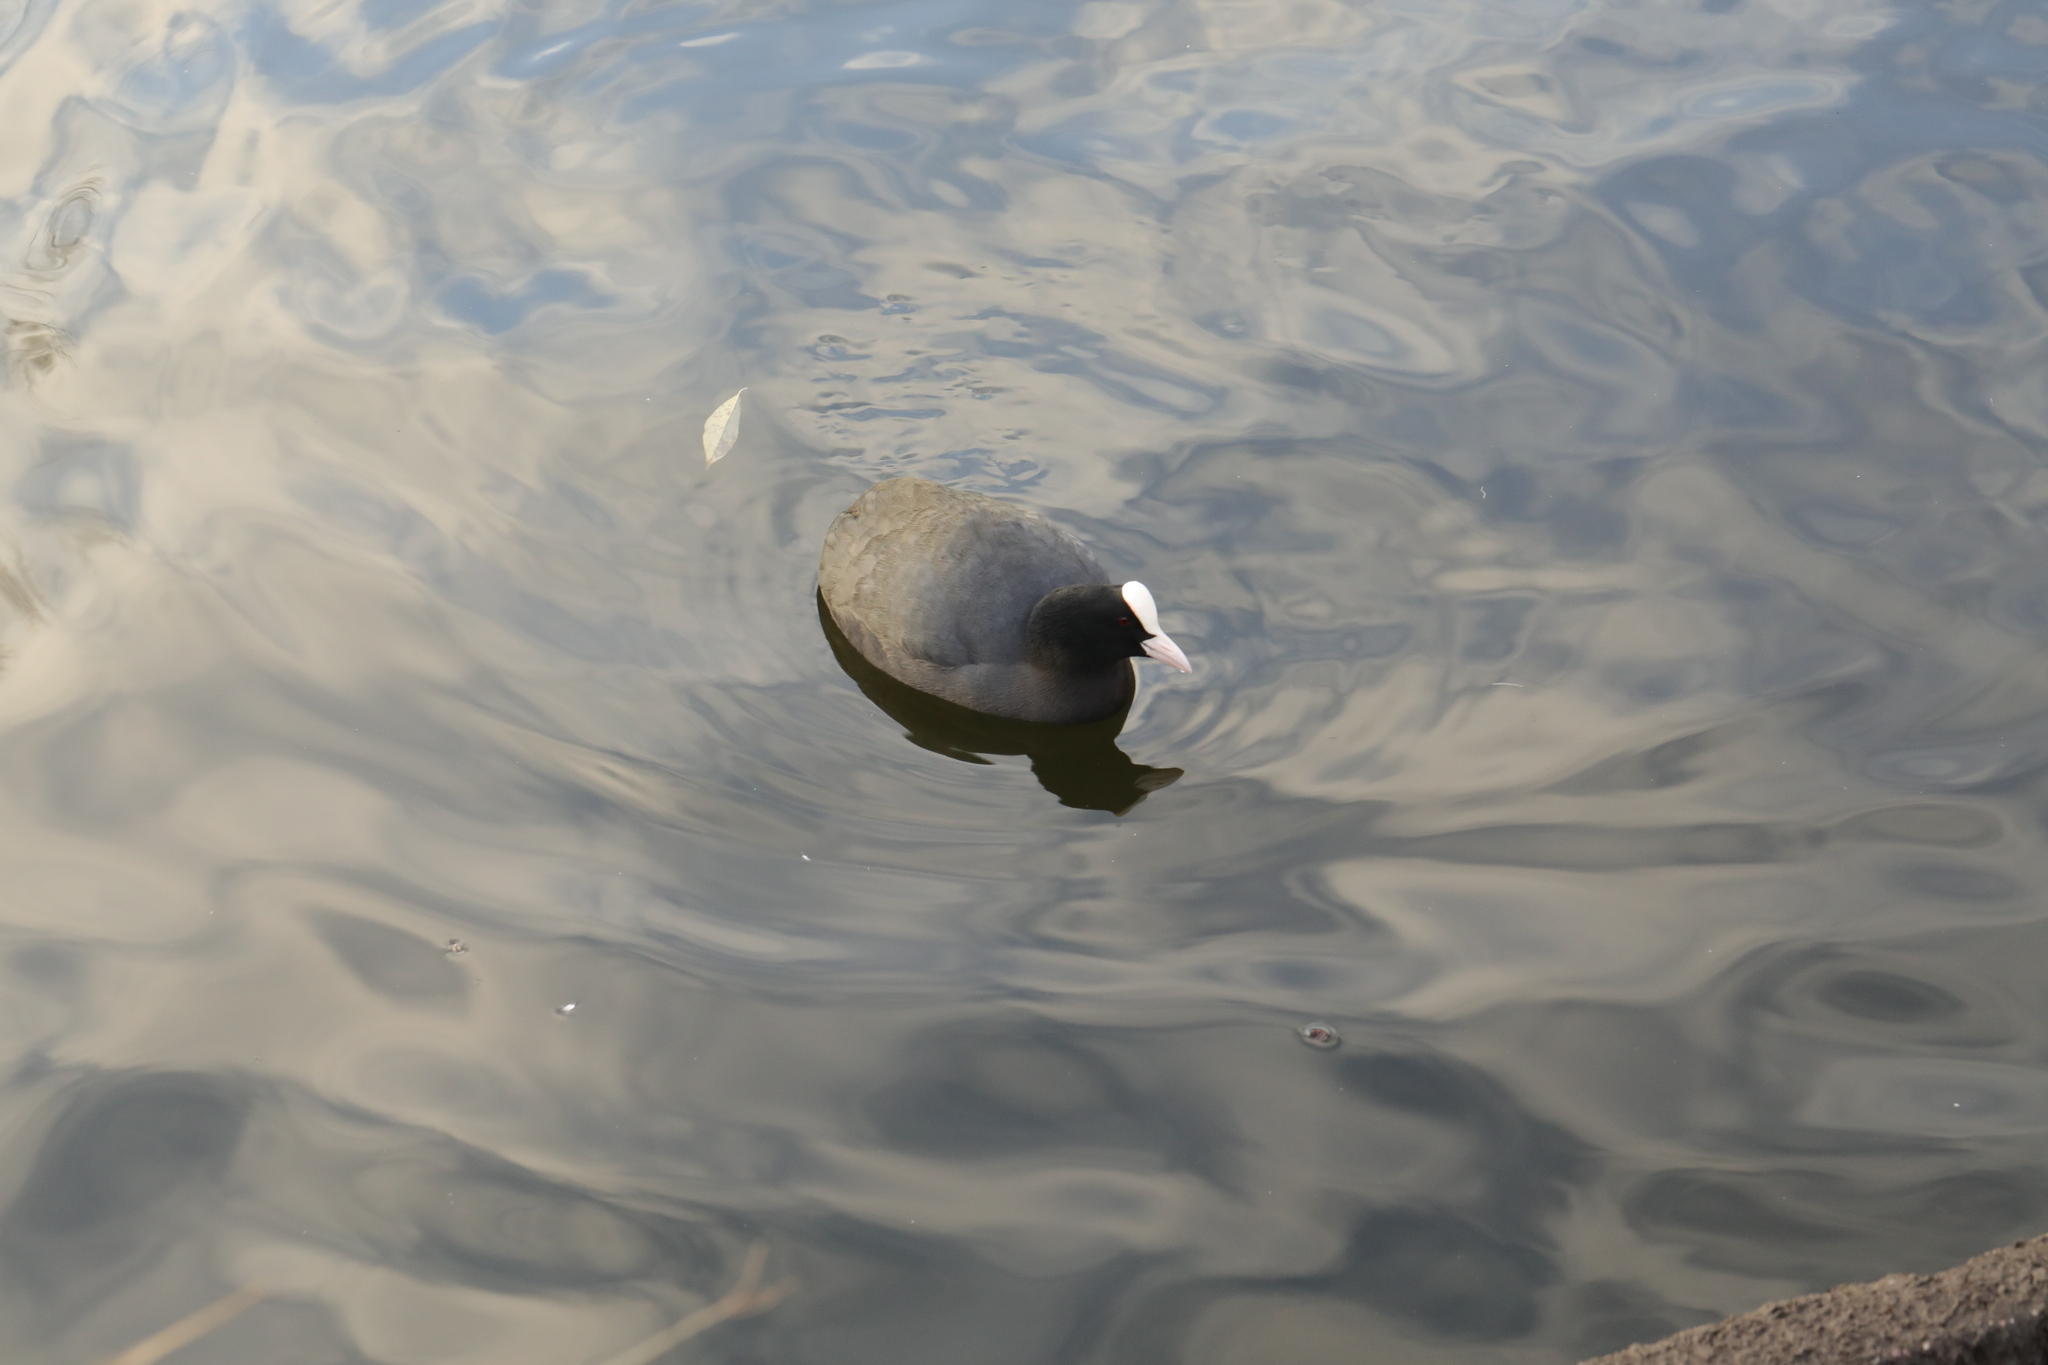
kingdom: Animalia
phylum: Chordata
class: Aves
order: Gruiformes
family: Rallidae
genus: Fulica
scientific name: Fulica atra
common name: Eurasian coot
